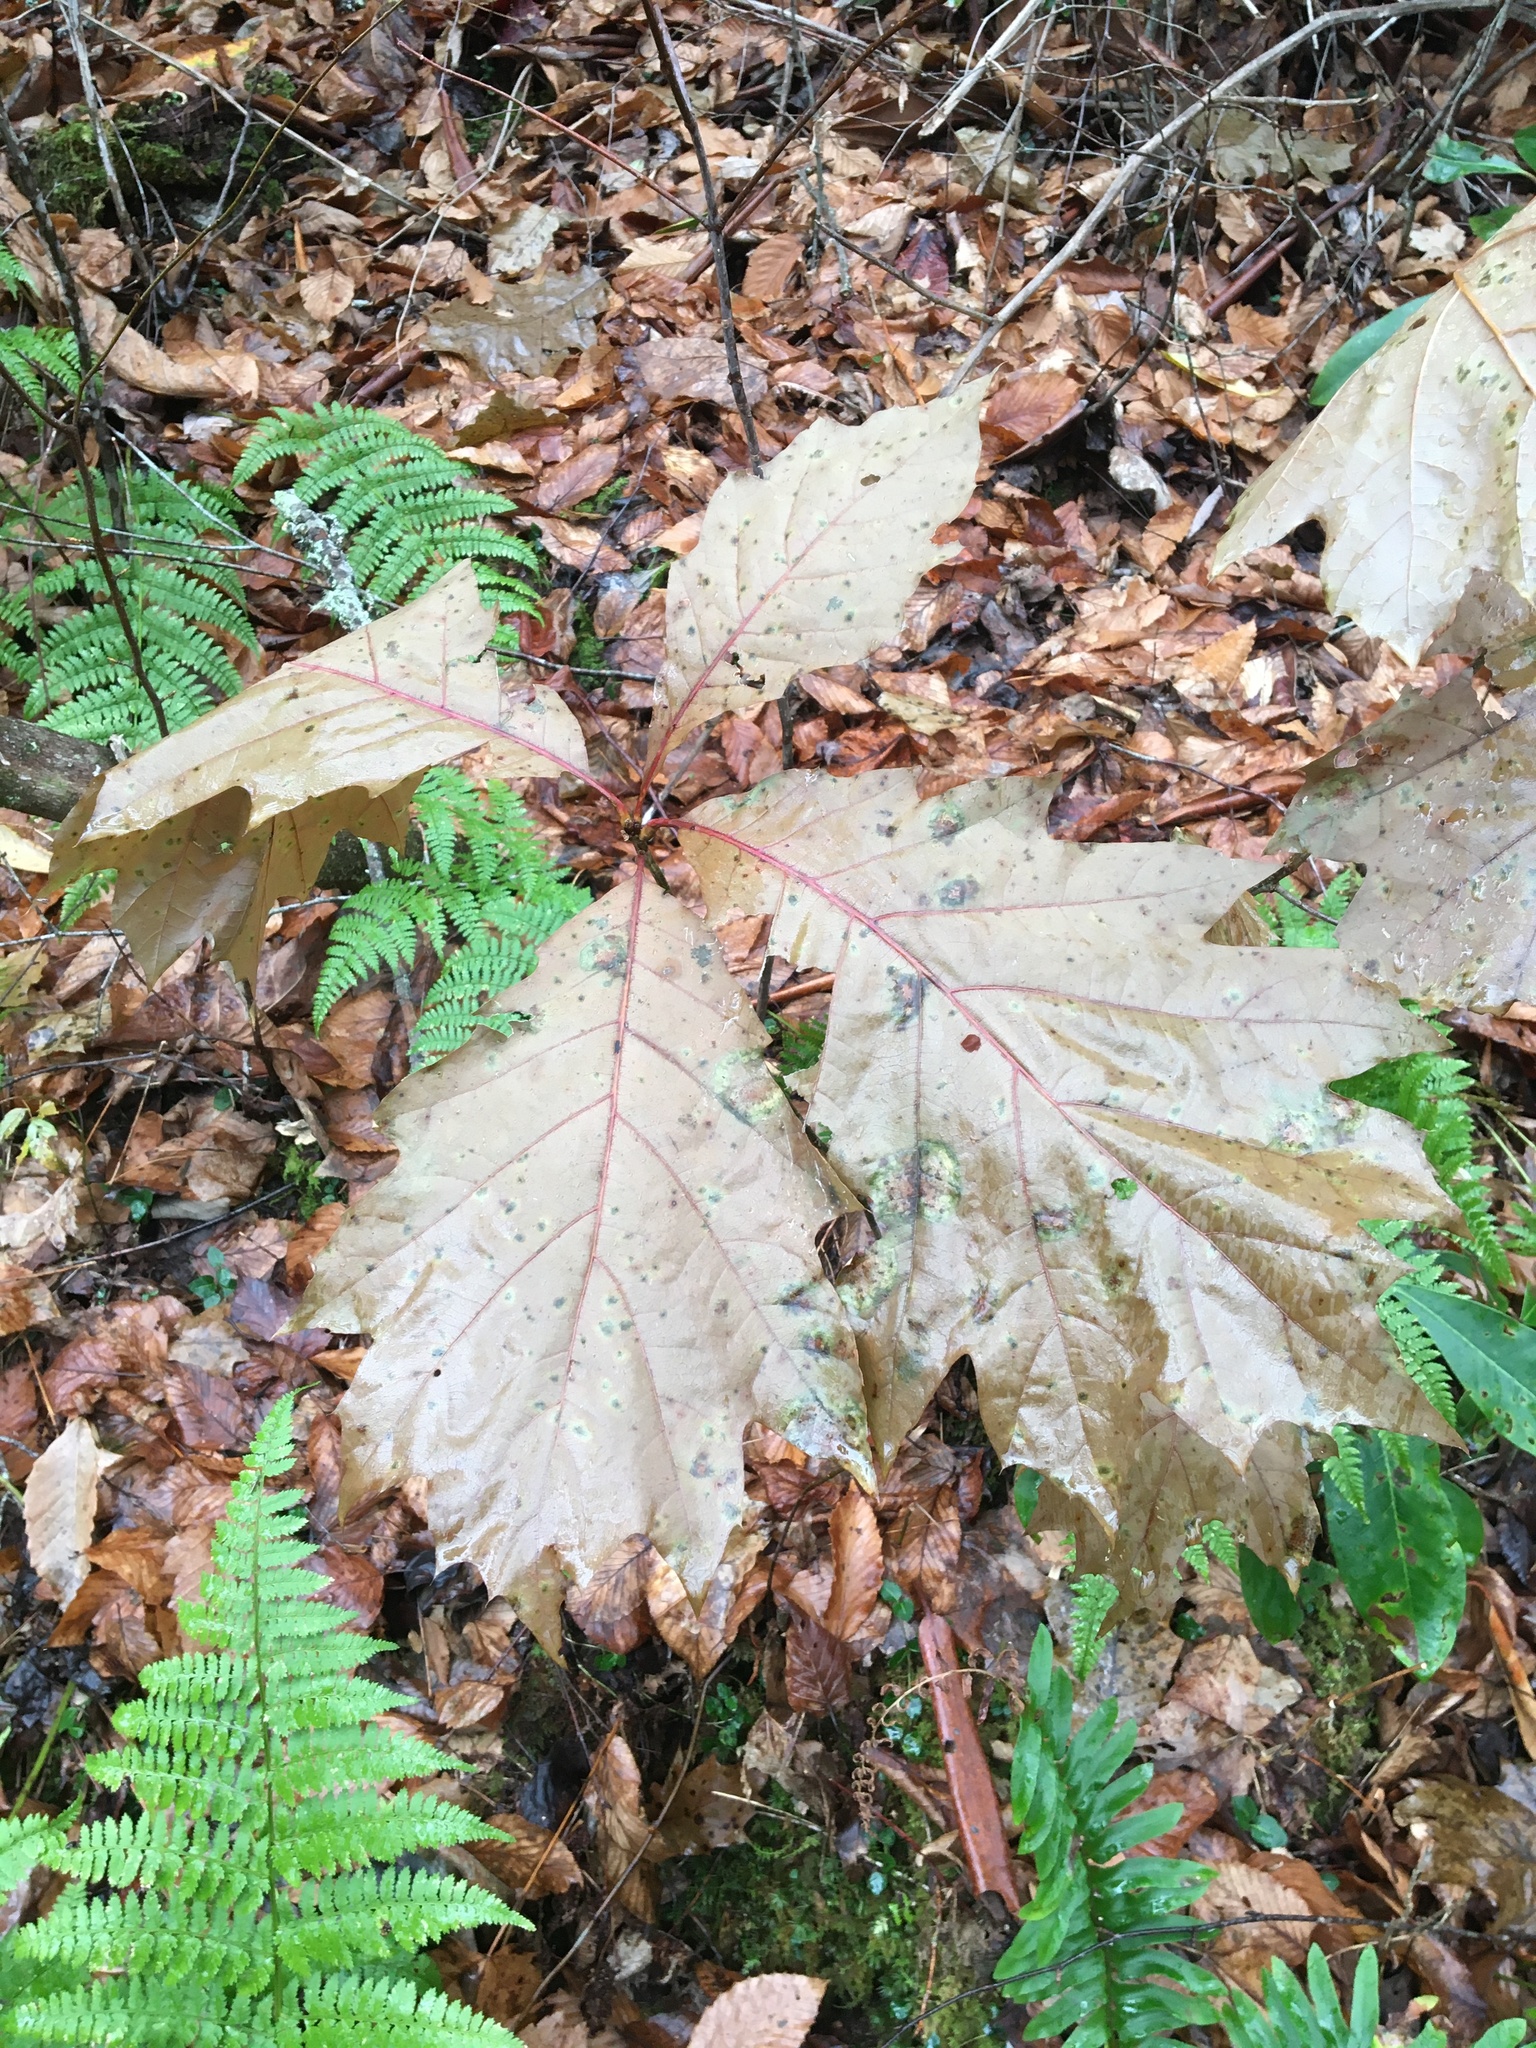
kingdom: Plantae
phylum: Tracheophyta
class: Magnoliopsida
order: Fagales
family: Fagaceae
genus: Quercus
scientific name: Quercus rubra
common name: Red oak
